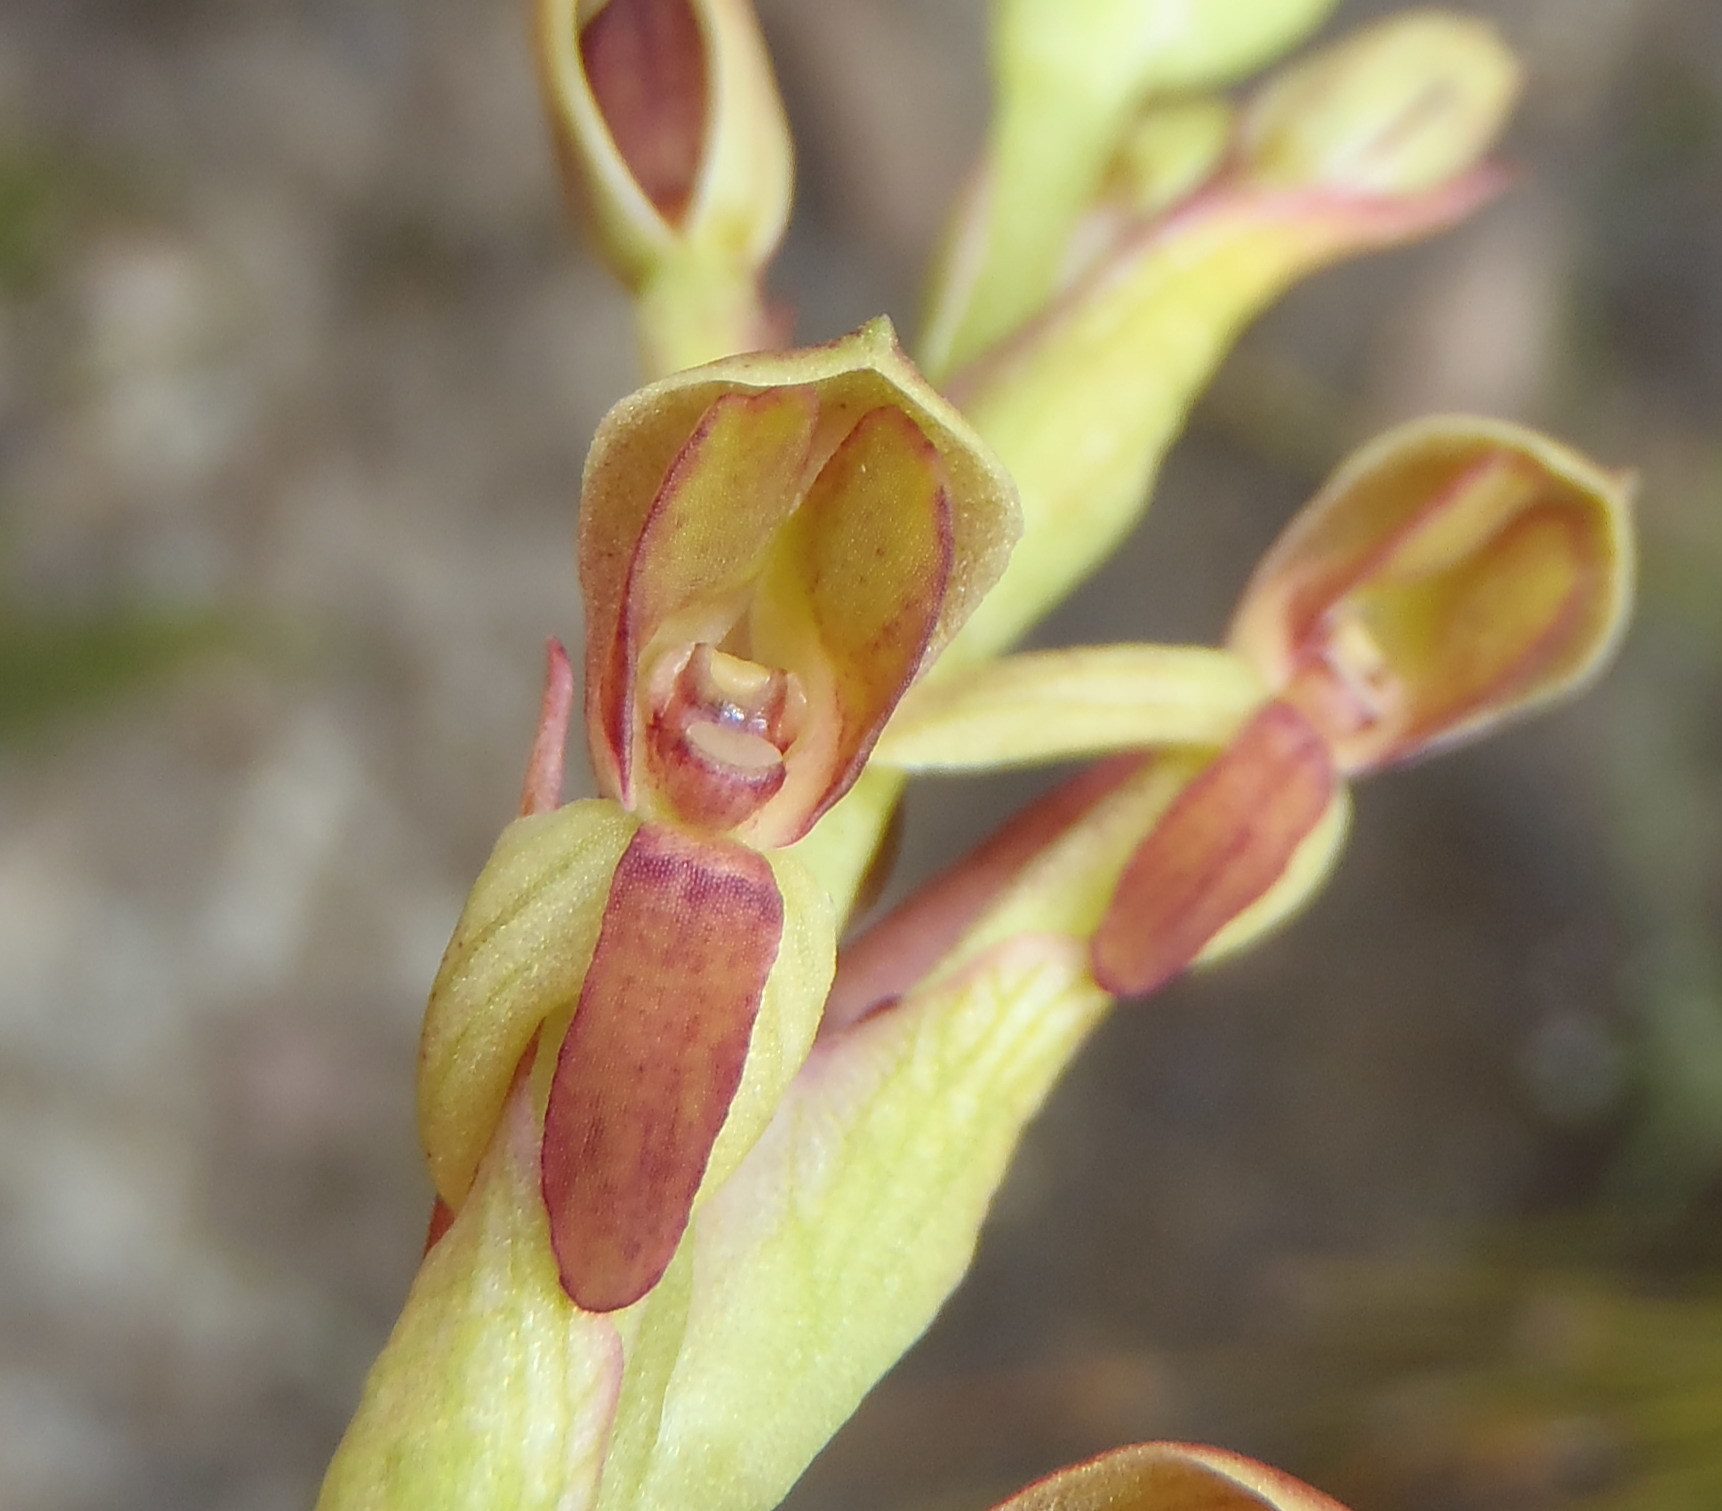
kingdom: Plantae
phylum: Tracheophyta
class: Liliopsida
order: Asparagales
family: Orchidaceae
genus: Disa
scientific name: Disa reticulata
